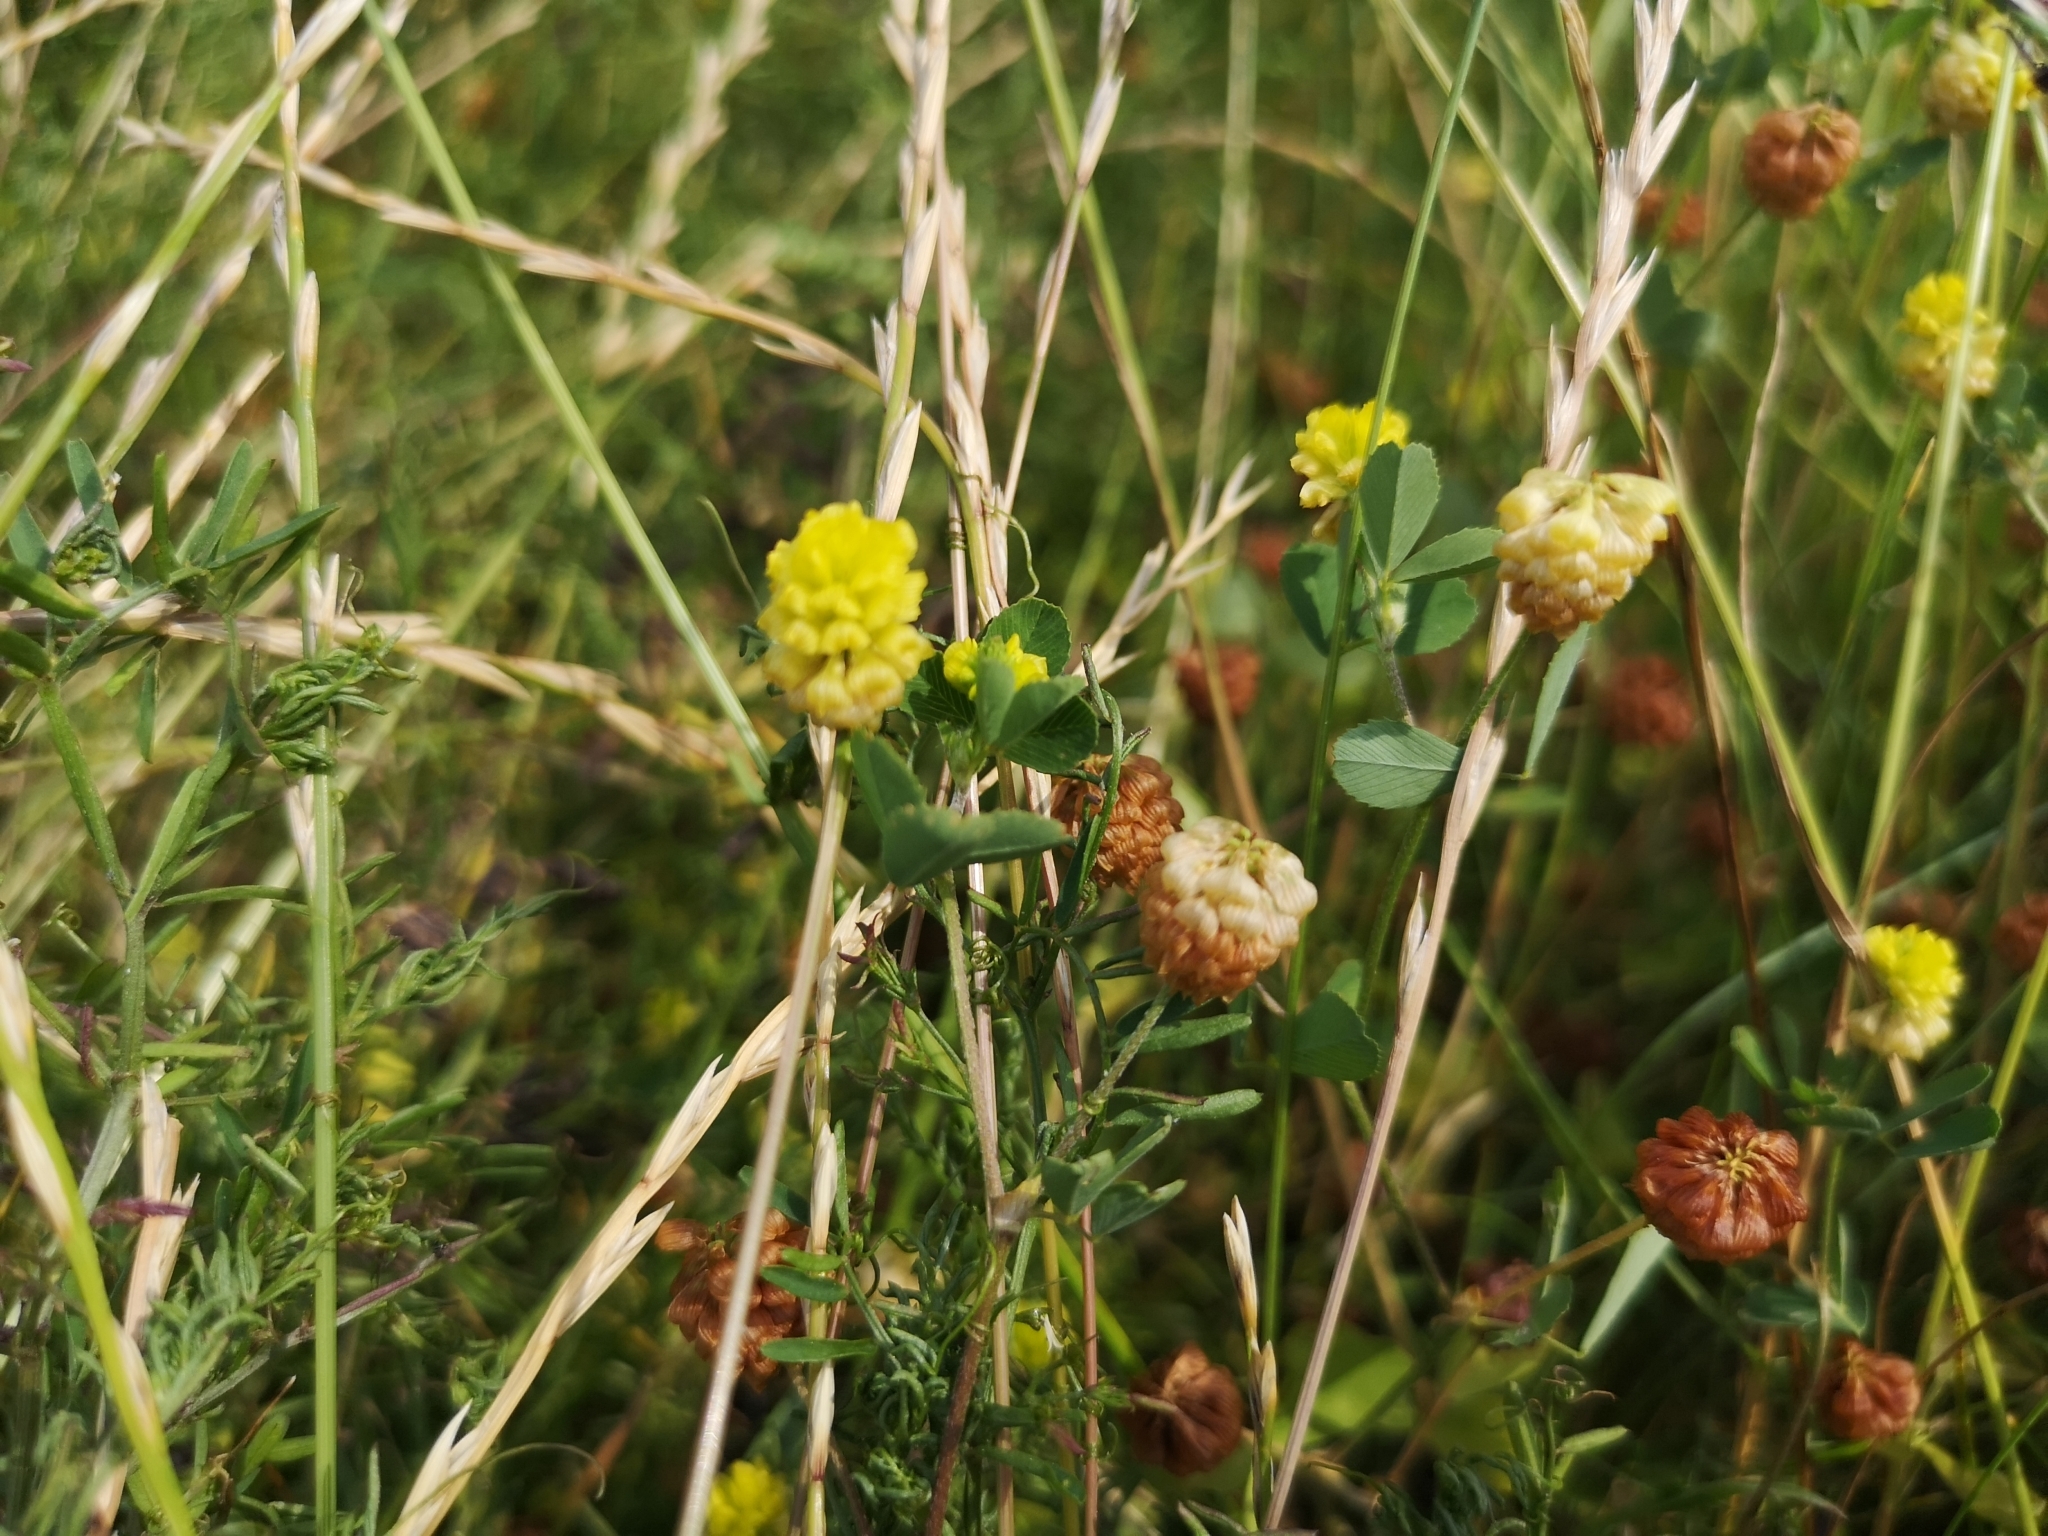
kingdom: Plantae
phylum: Tracheophyta
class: Magnoliopsida
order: Fabales
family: Fabaceae
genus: Trifolium
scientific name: Trifolium campestre
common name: Field clover
